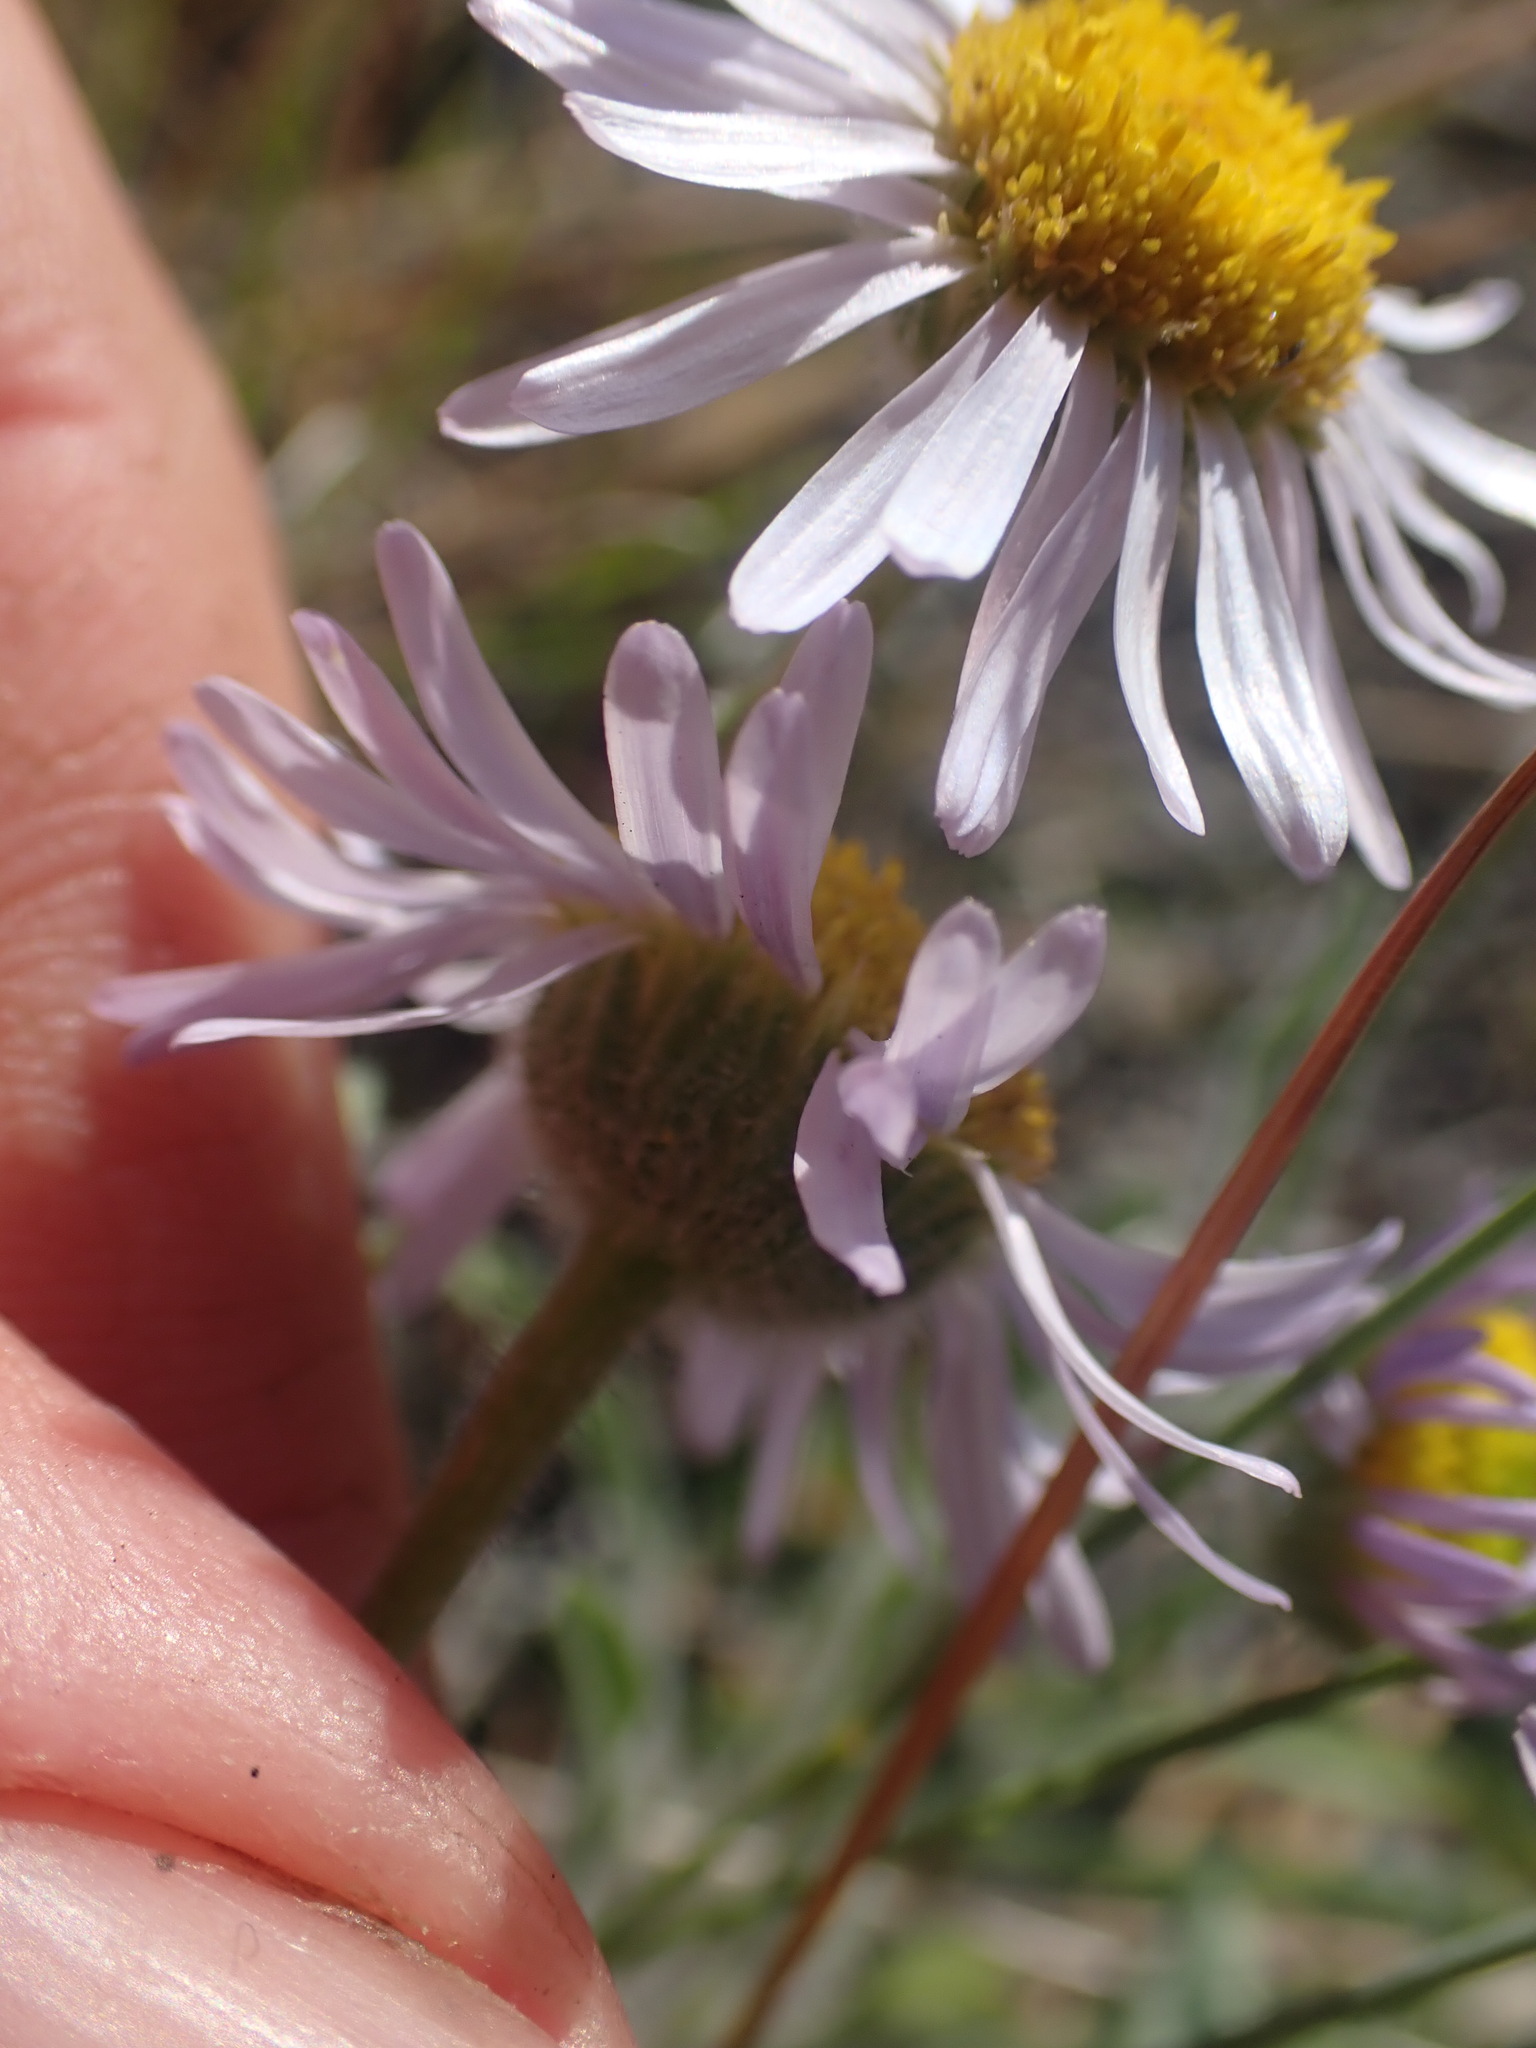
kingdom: Plantae
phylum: Tracheophyta
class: Magnoliopsida
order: Asterales
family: Asteraceae
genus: Erigeron
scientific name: Erigeron poliospermus
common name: Cushion fleabane
